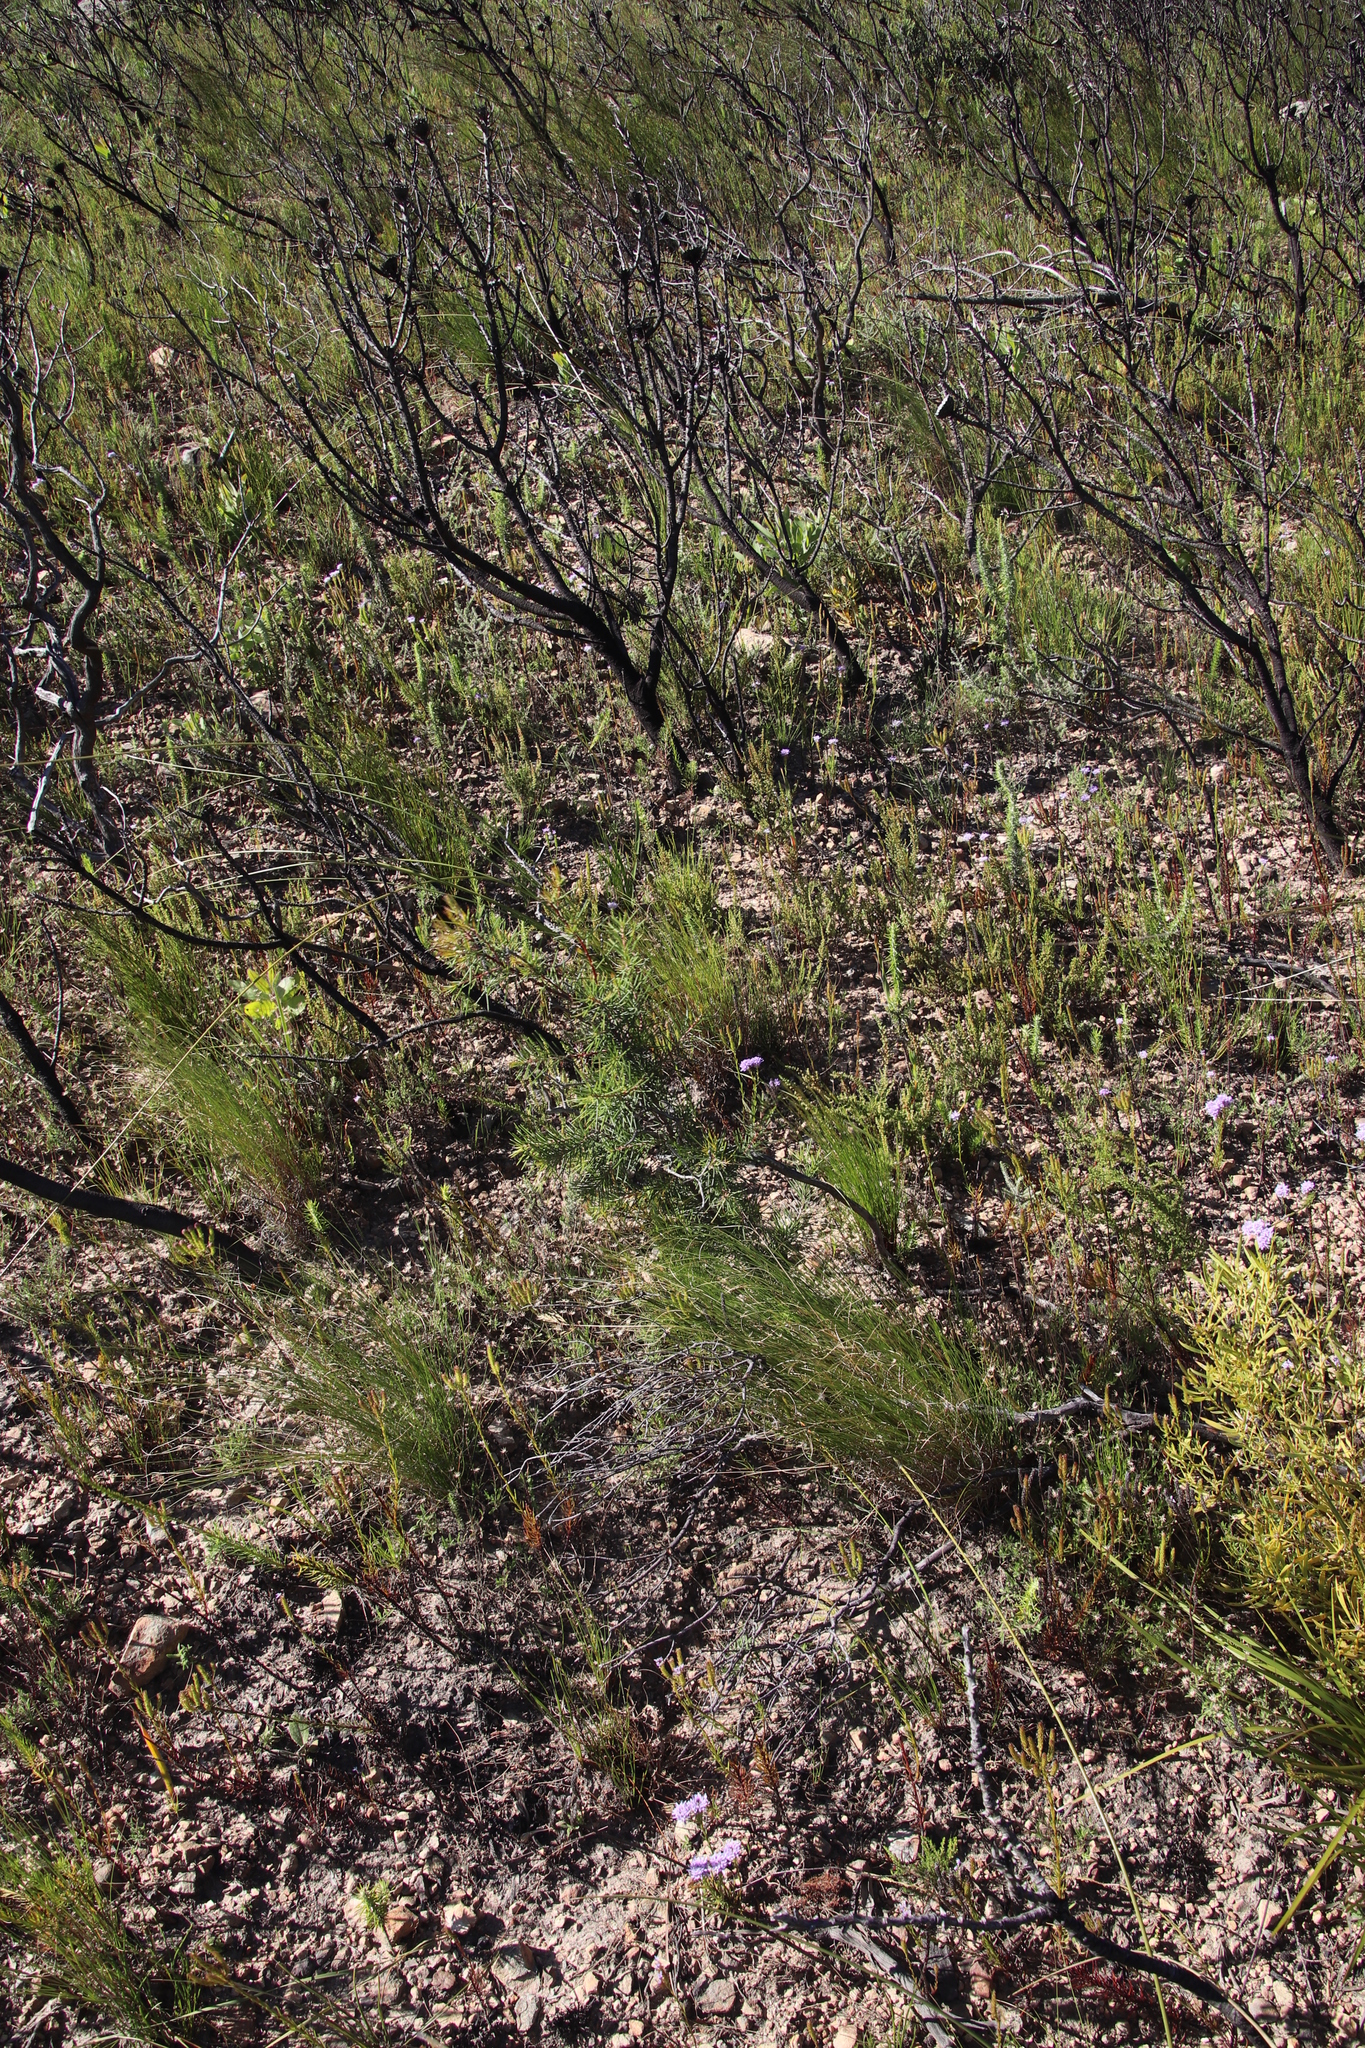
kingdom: Plantae
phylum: Tracheophyta
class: Magnoliopsida
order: Proteales
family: Proteaceae
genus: Hakea
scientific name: Hakea sericea
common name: Needle bush
